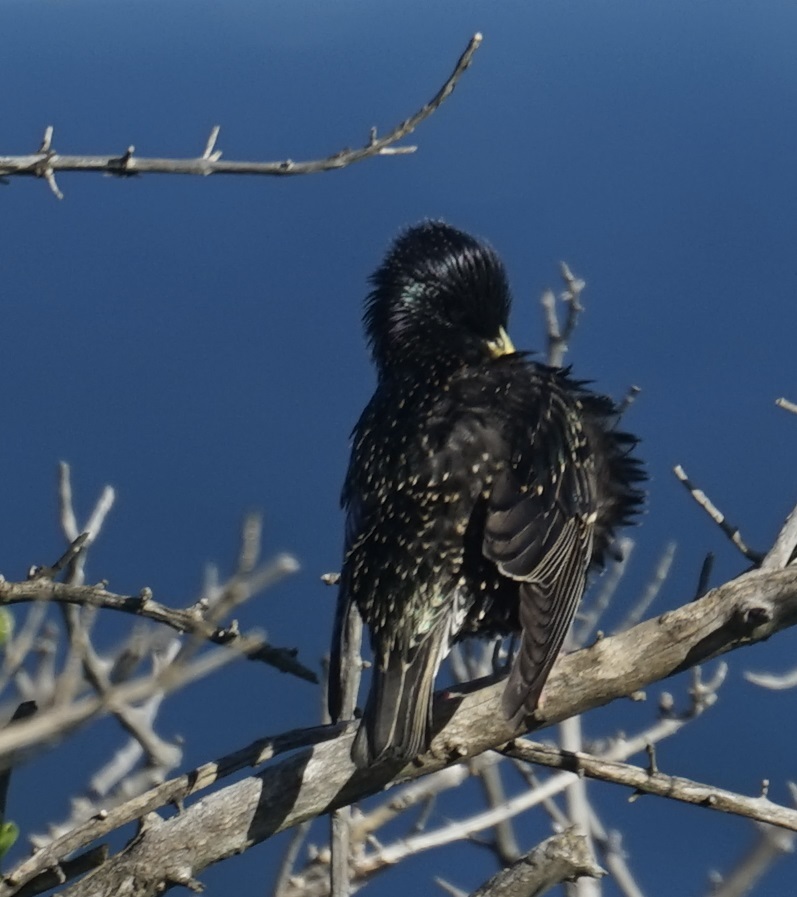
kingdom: Animalia
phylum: Chordata
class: Aves
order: Passeriformes
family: Sturnidae
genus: Sturnus
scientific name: Sturnus vulgaris
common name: Common starling
